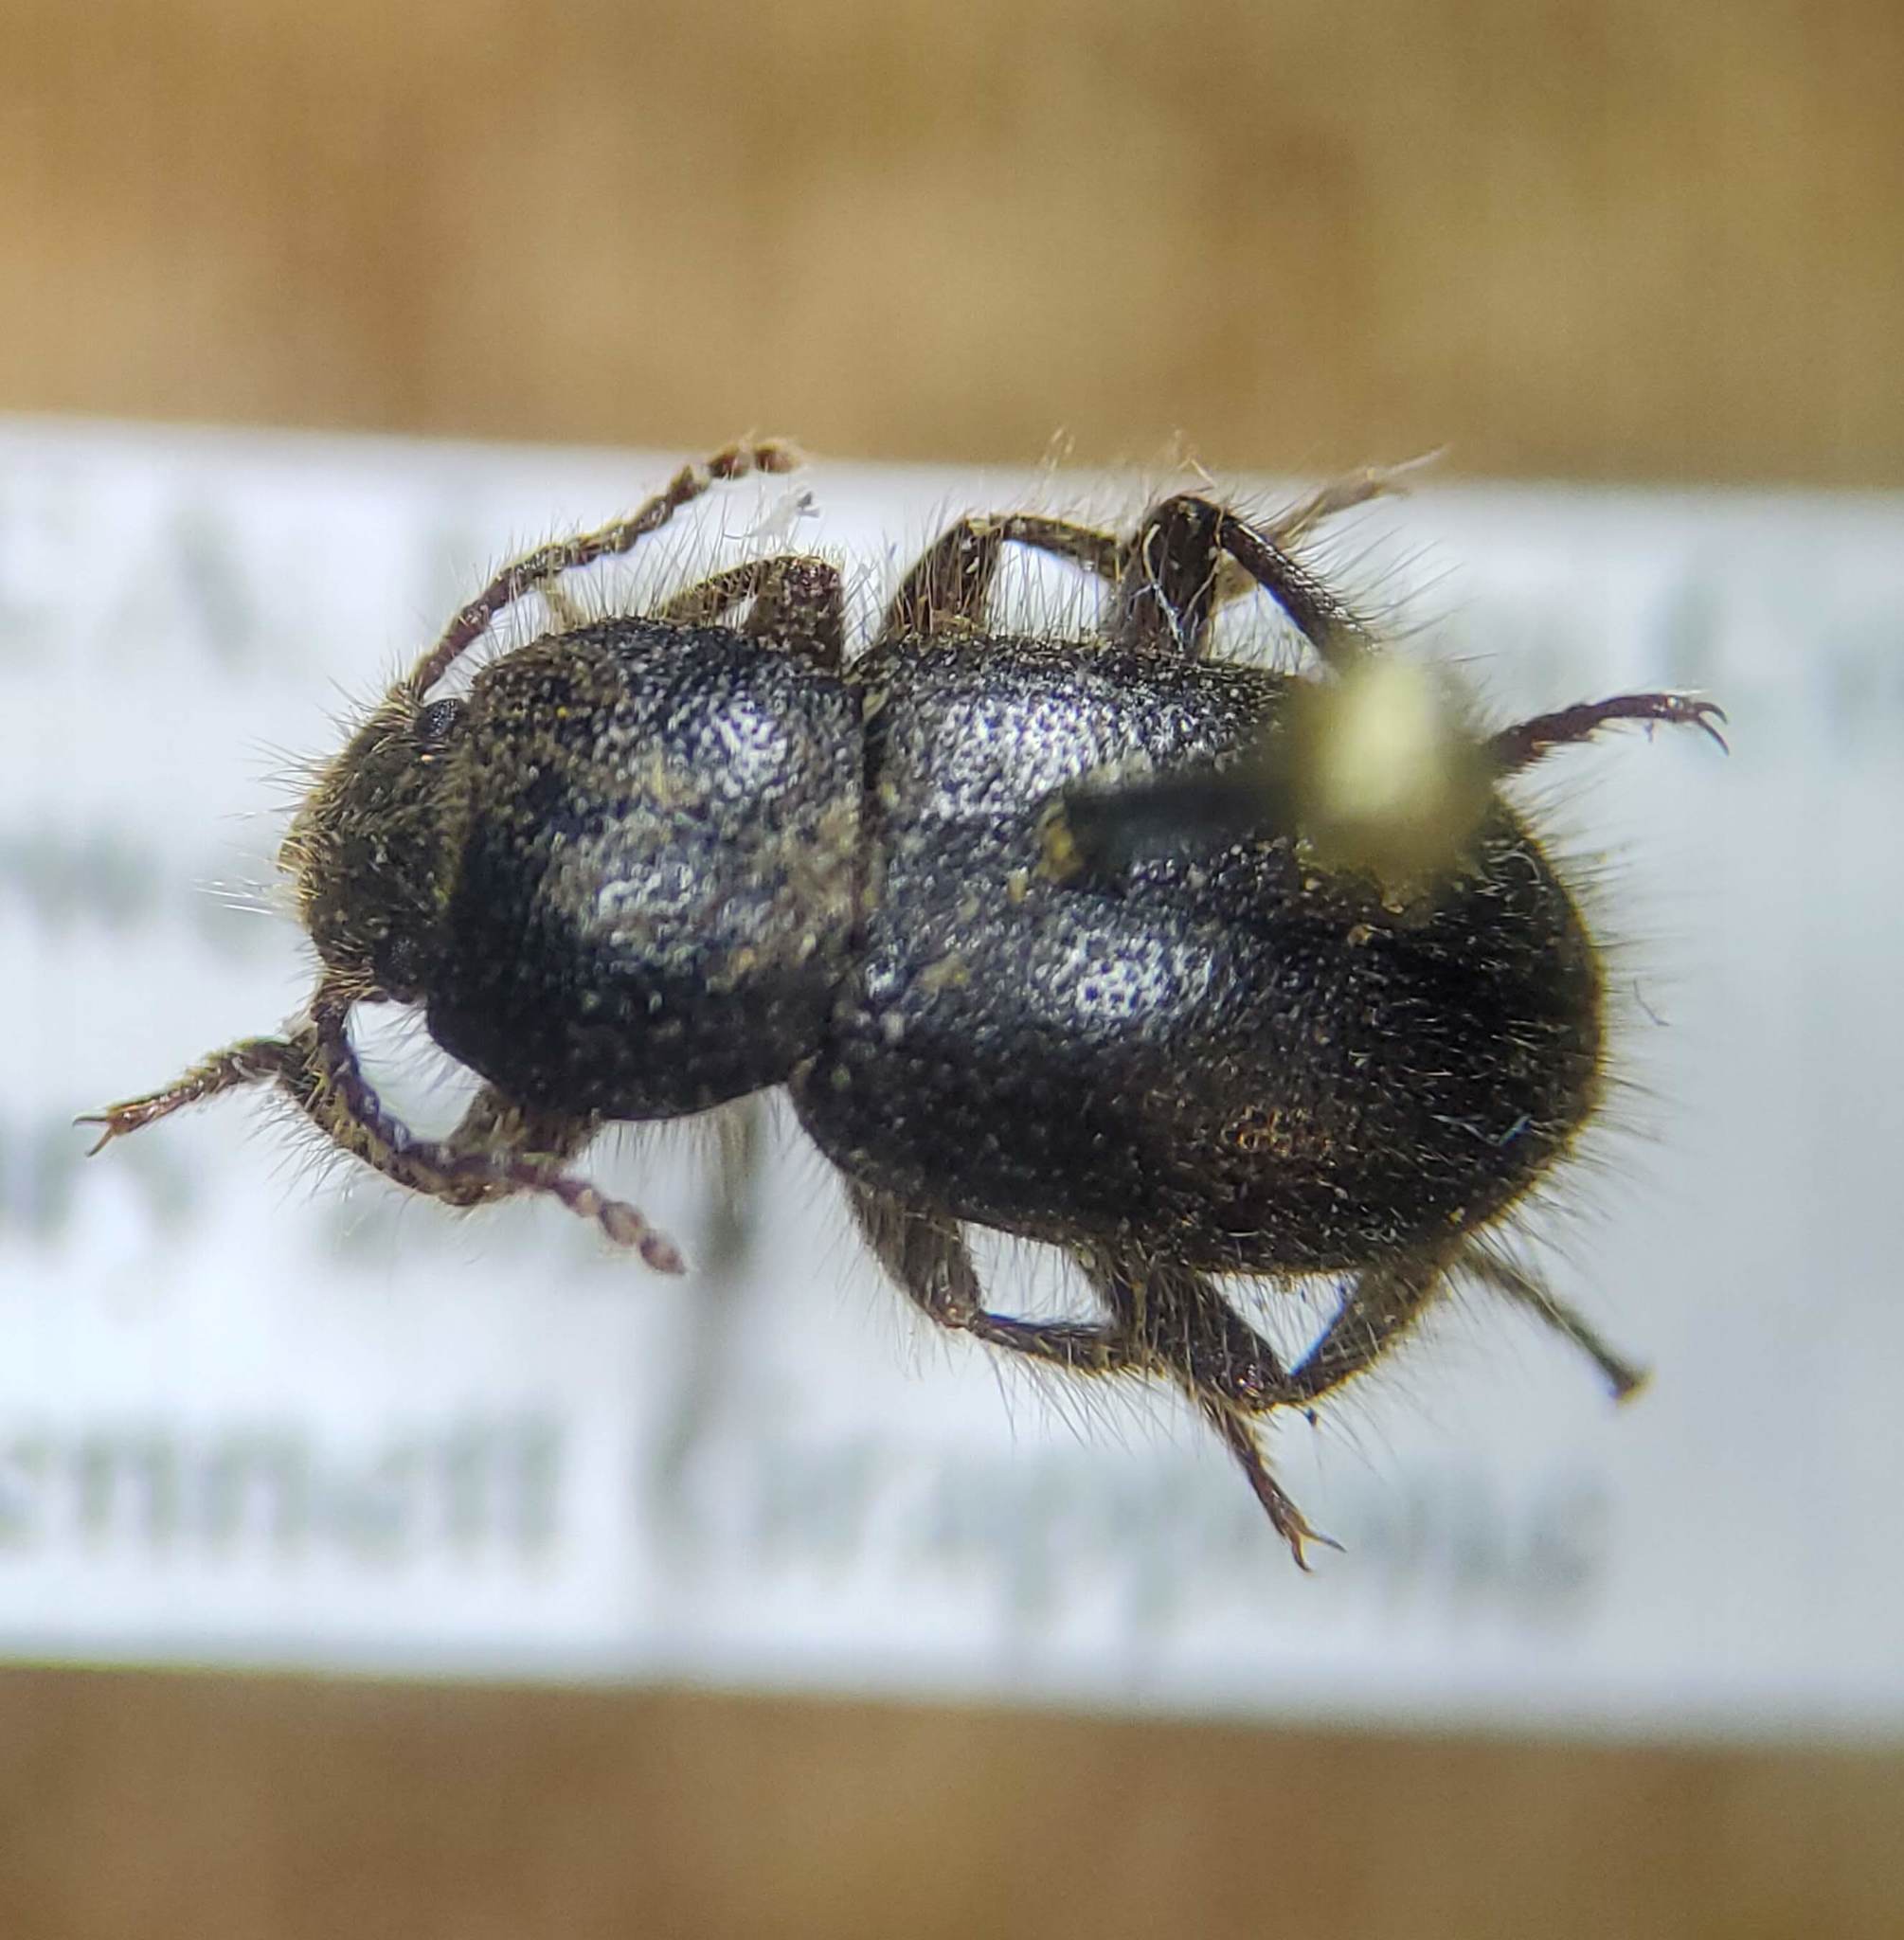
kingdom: Animalia
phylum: Arthropoda
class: Insecta
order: Coleoptera
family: Tenebrionidae
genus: Eleodes
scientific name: Eleodes littoralis
